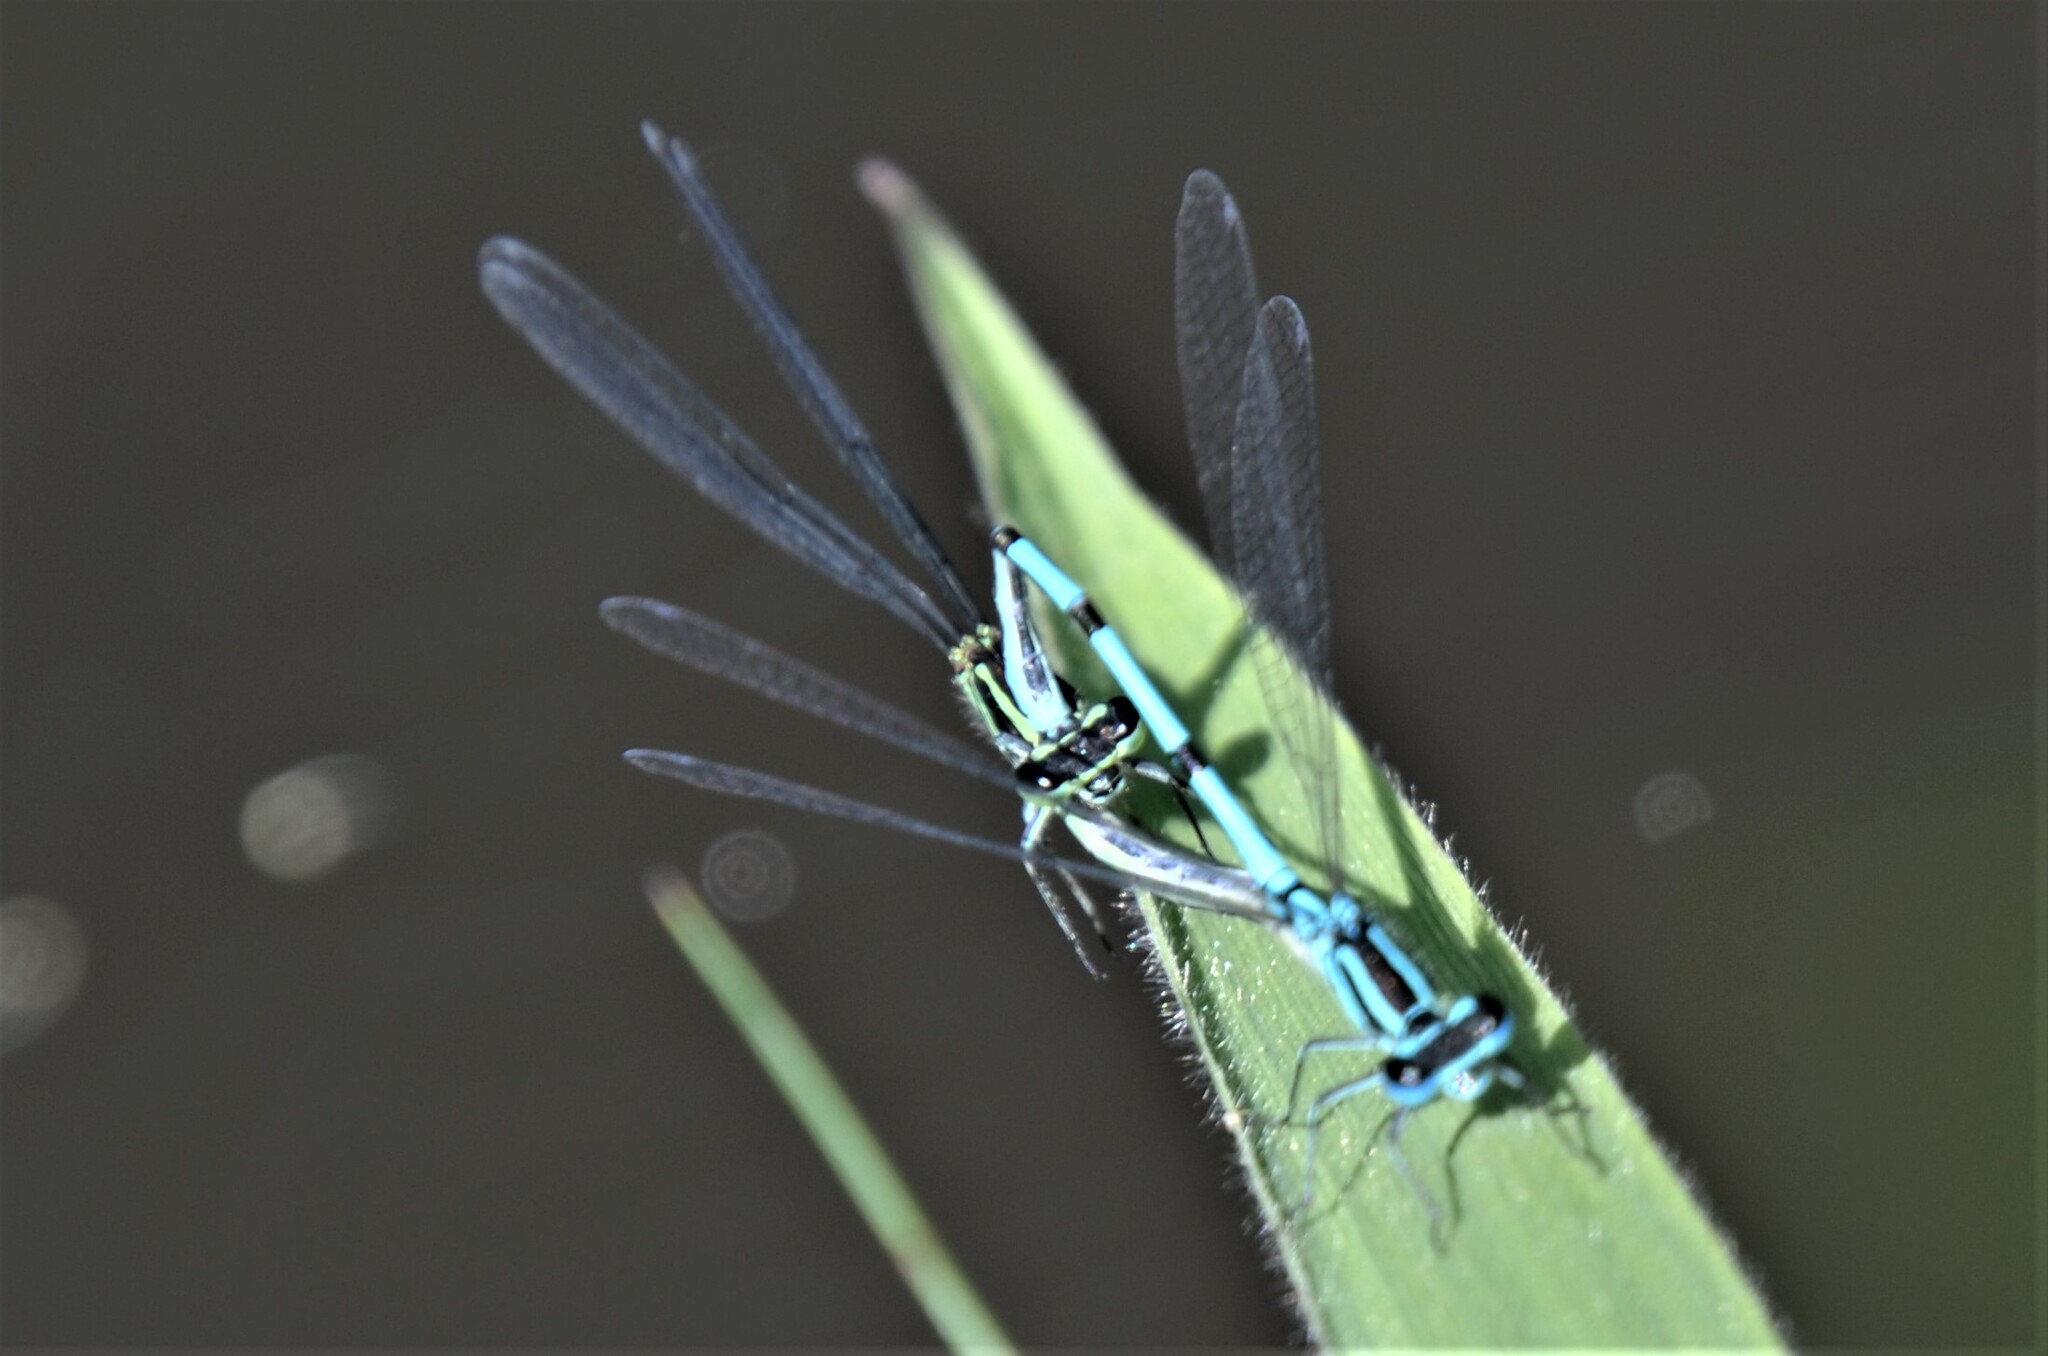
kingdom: Animalia
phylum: Arthropoda
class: Insecta
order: Odonata
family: Coenagrionidae
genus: Coenagrion
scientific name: Coenagrion puella
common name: Azure damselfly
